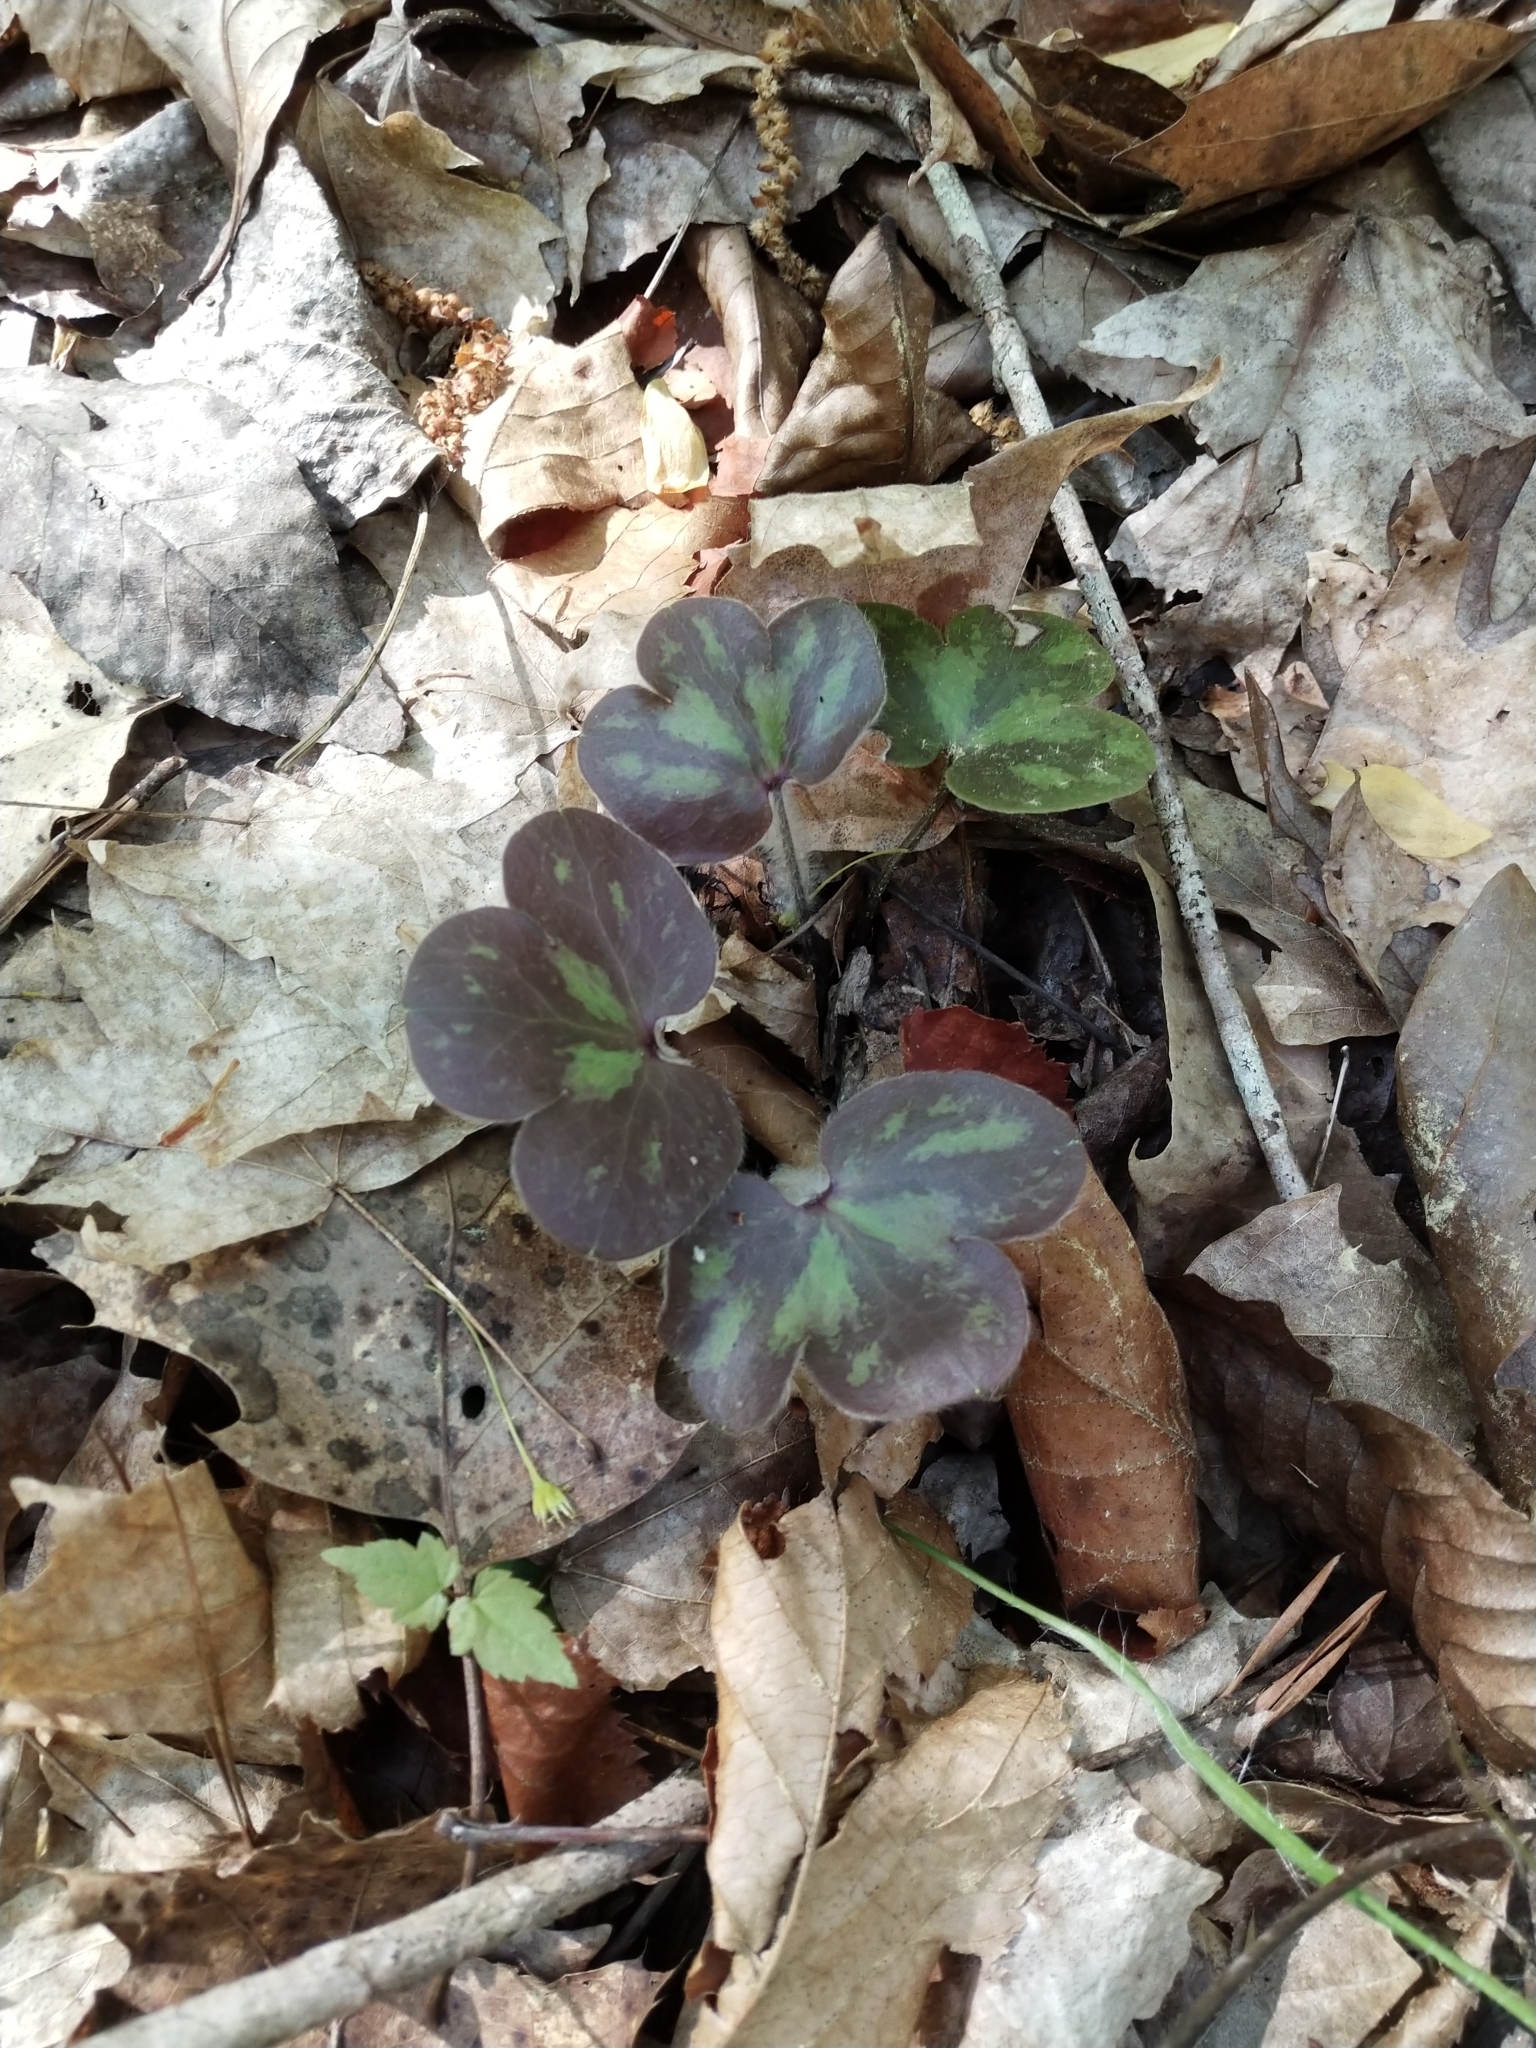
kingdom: Plantae
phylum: Tracheophyta
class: Magnoliopsida
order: Ranunculales
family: Ranunculaceae
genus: Hepatica
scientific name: Hepatica americana
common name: American hepatica
